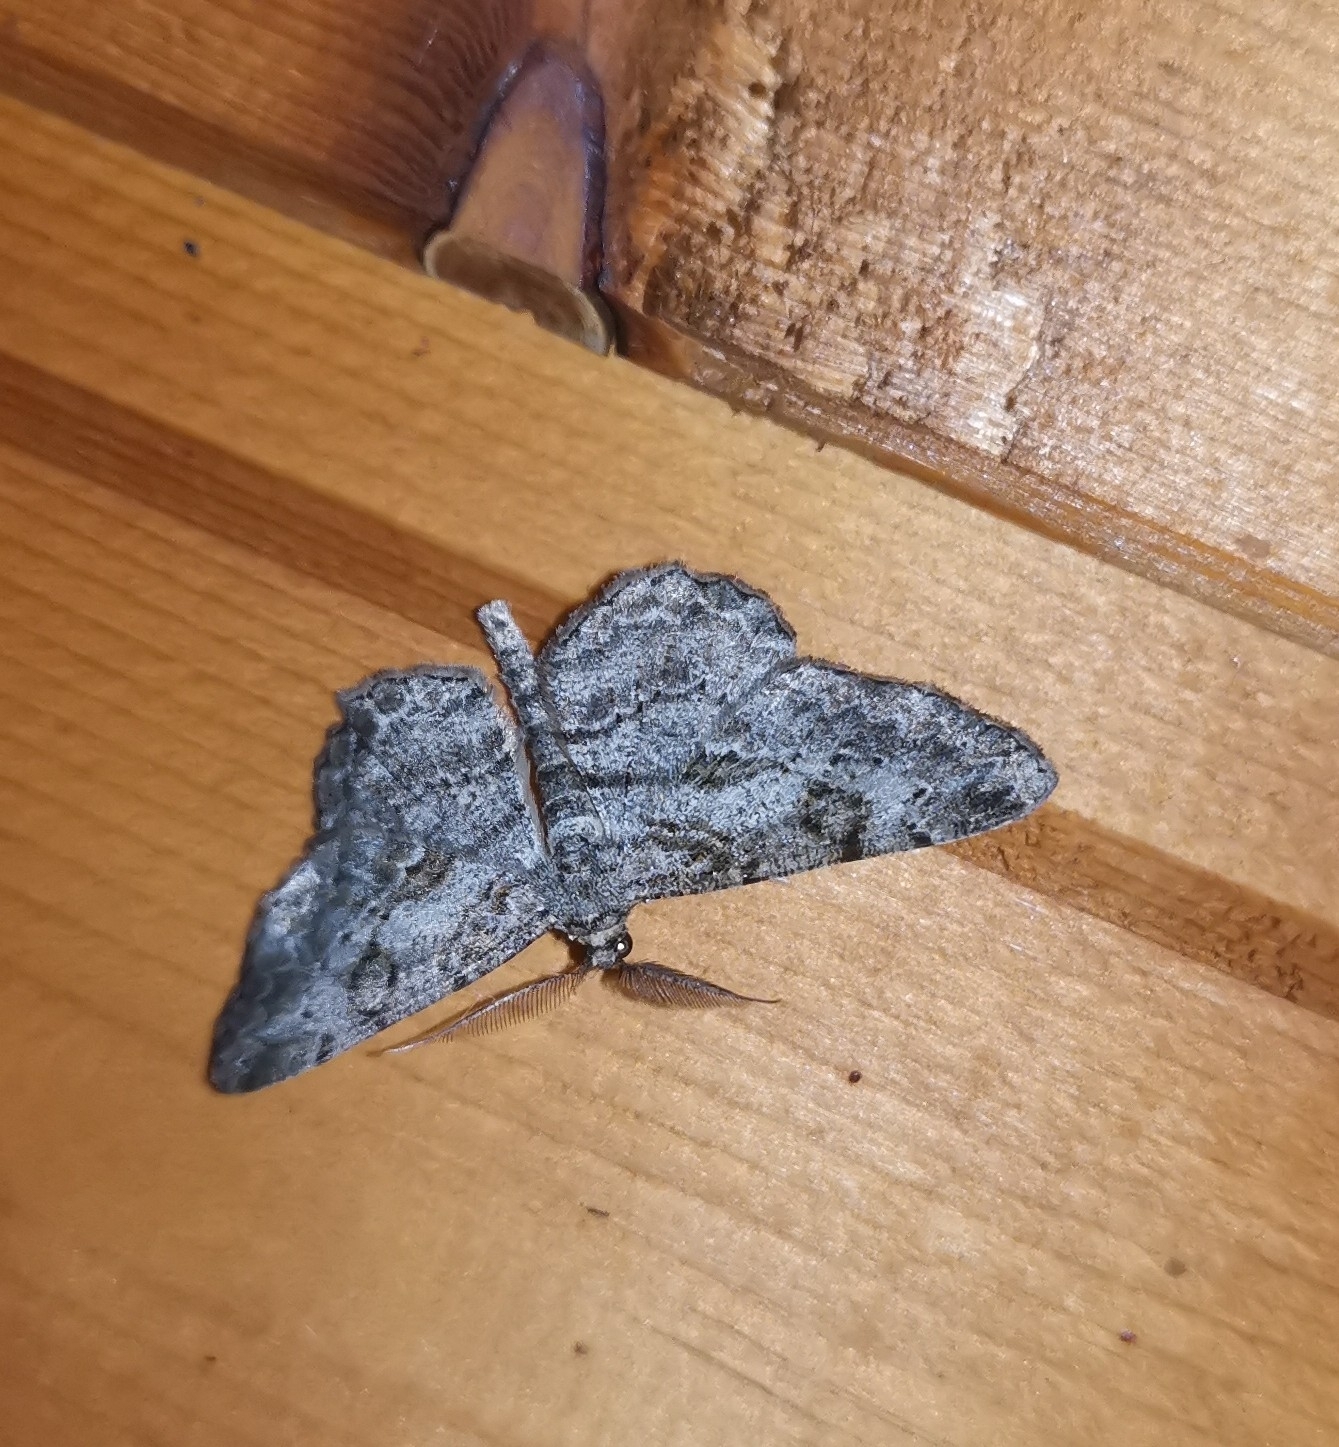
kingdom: Animalia
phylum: Arthropoda
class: Insecta
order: Lepidoptera
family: Geometridae
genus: Peribatodes
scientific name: Peribatodes rhomboidaria
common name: Willow beauty
